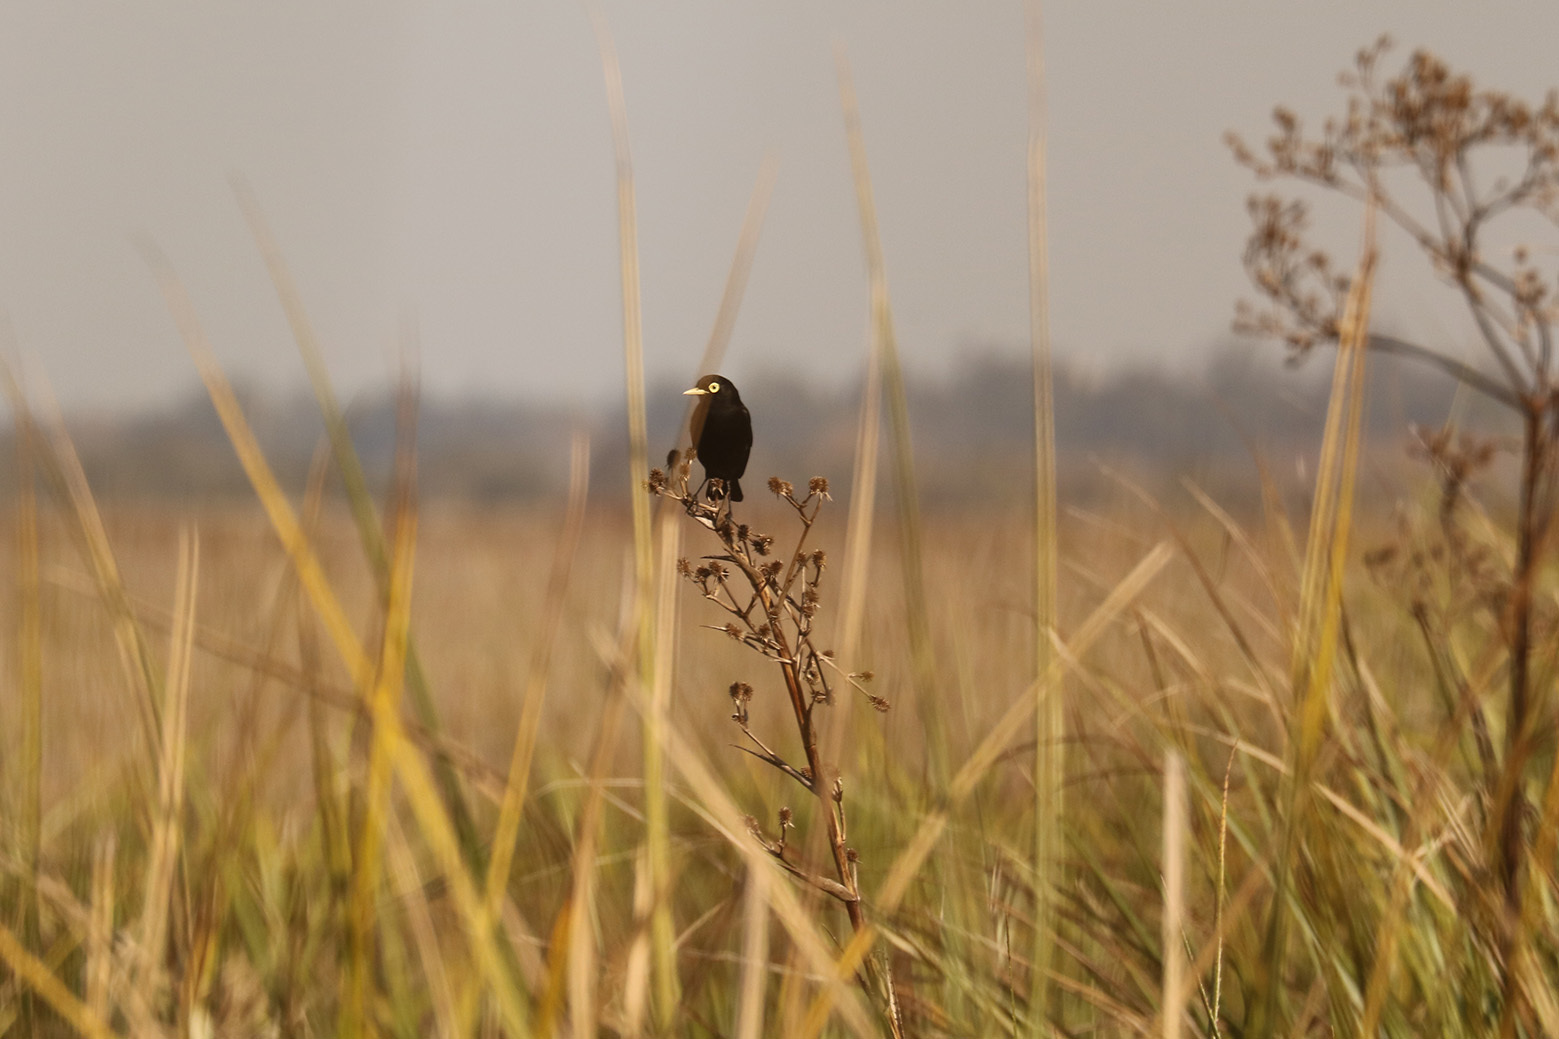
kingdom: Animalia
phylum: Chordata
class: Aves
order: Passeriformes
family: Tyrannidae
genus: Hymenops
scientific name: Hymenops perspicillatus
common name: Spectacled tyrant
